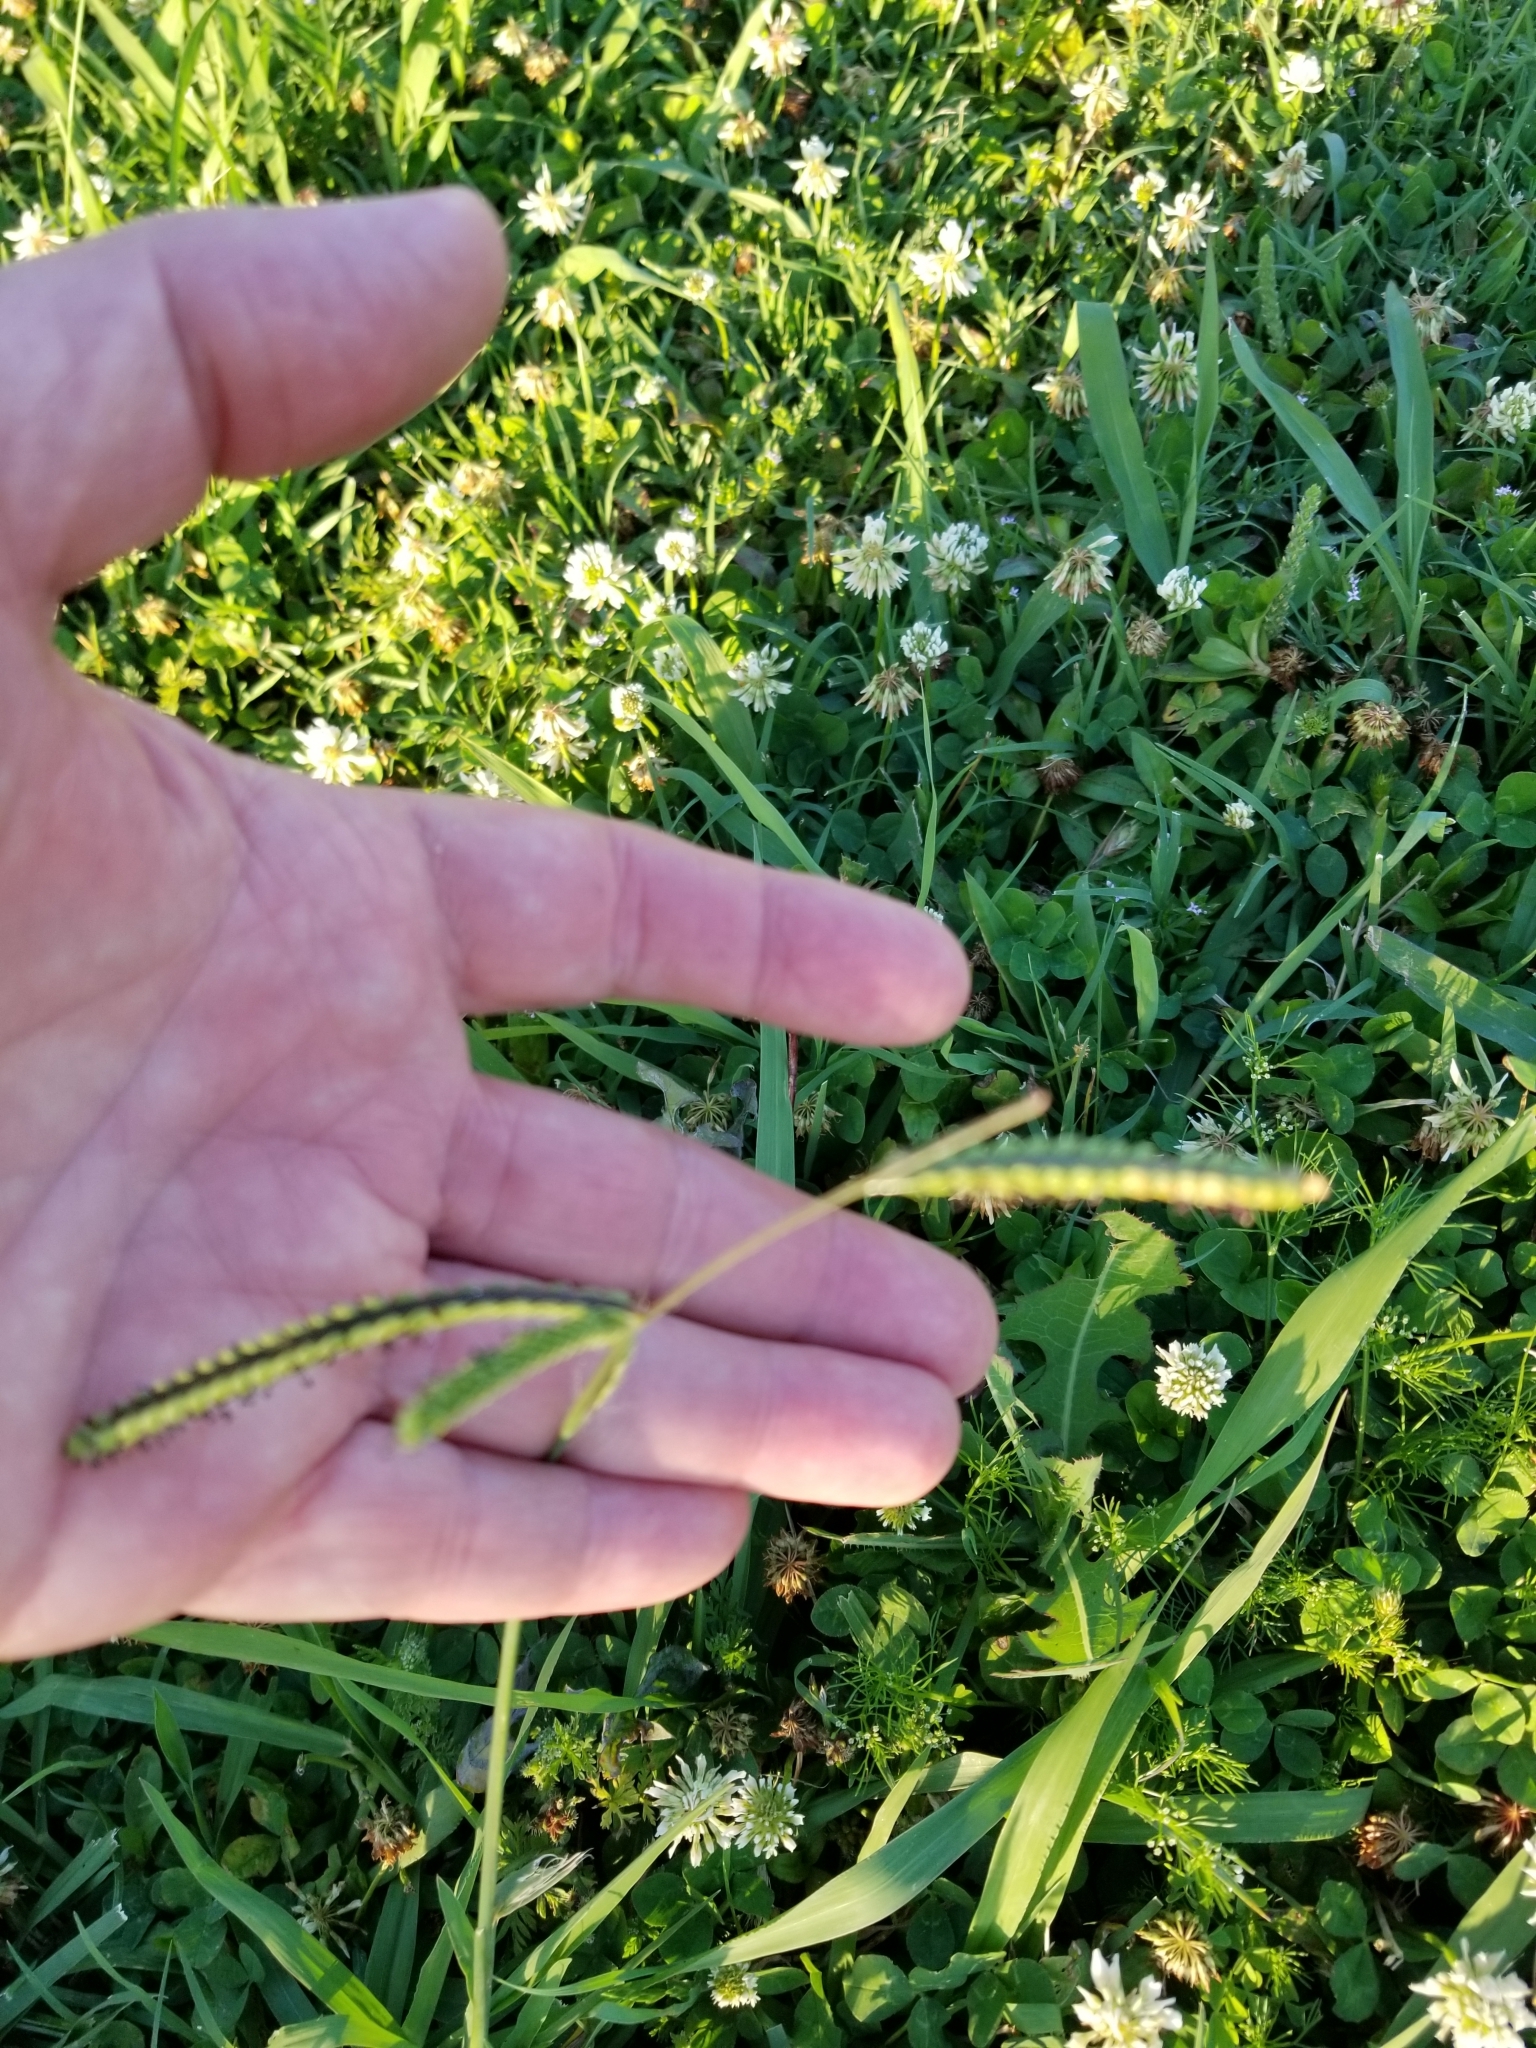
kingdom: Plantae
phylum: Tracheophyta
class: Liliopsida
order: Poales
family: Poaceae
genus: Paspalum
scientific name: Paspalum dilatatum
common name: Dallisgrass
